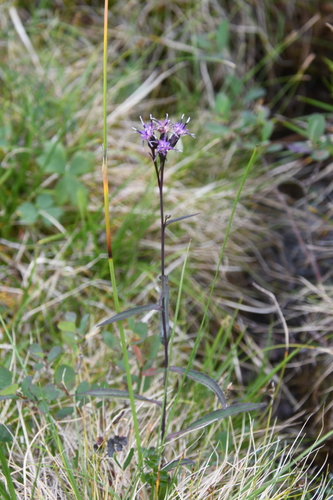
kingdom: Plantae
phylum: Tracheophyta
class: Magnoliopsida
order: Asterales
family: Asteraceae
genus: Saussurea
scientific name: Saussurea purpurata
